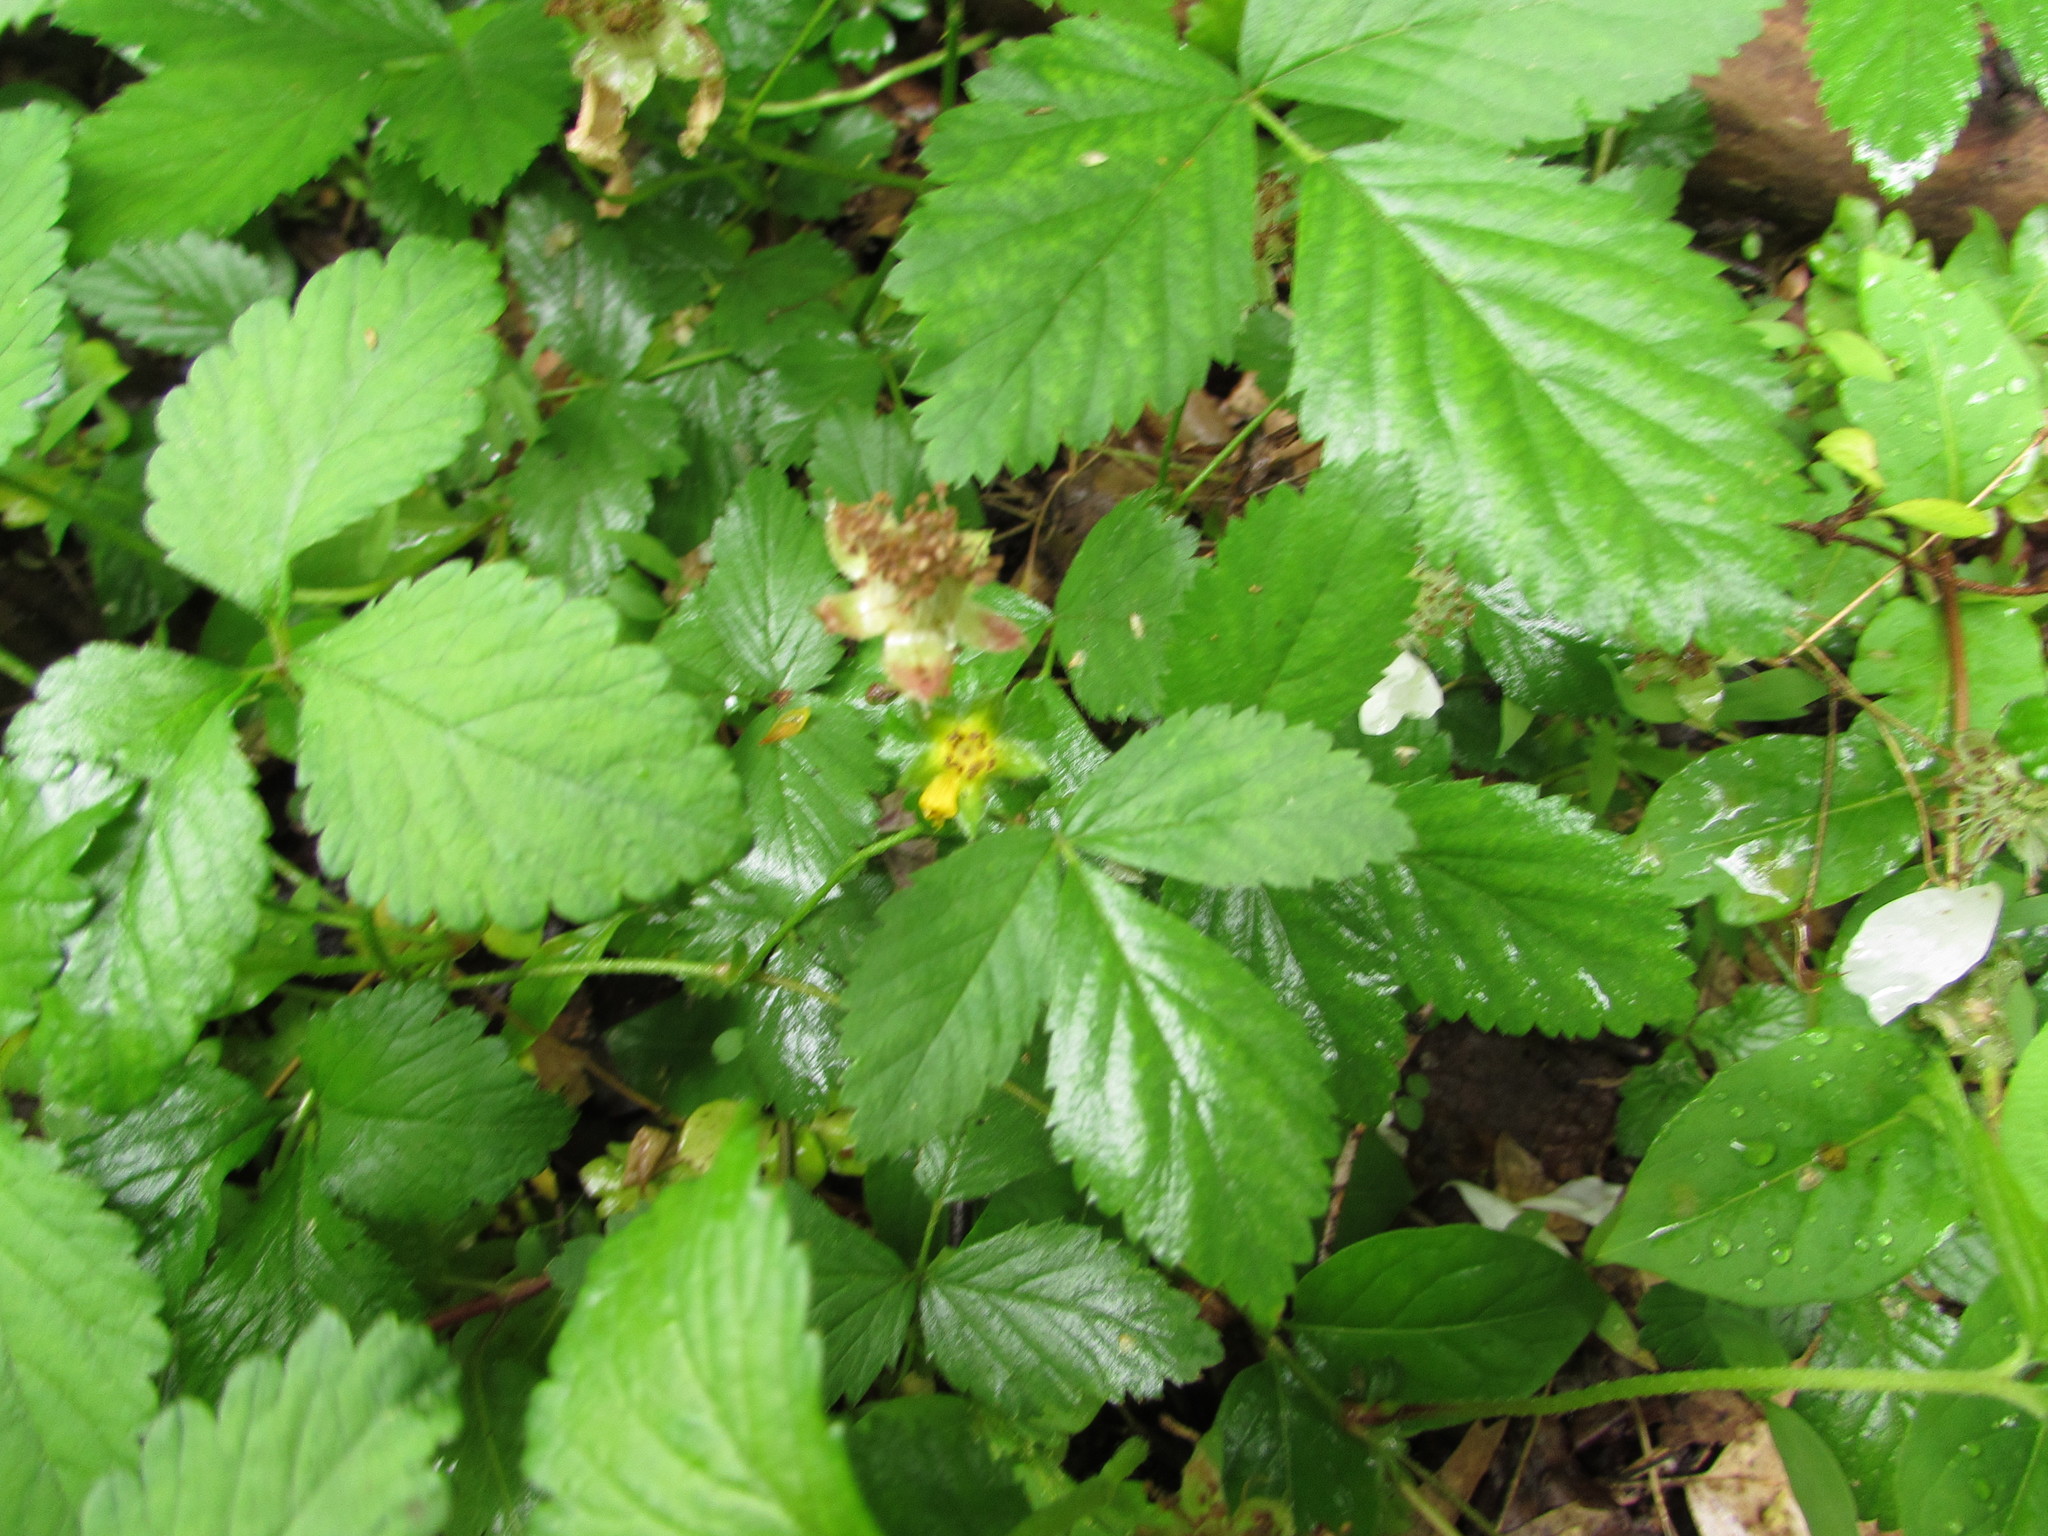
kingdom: Plantae
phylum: Tracheophyta
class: Magnoliopsida
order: Rosales
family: Rosaceae
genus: Potentilla
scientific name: Potentilla indica
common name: Yellow-flowered strawberry
